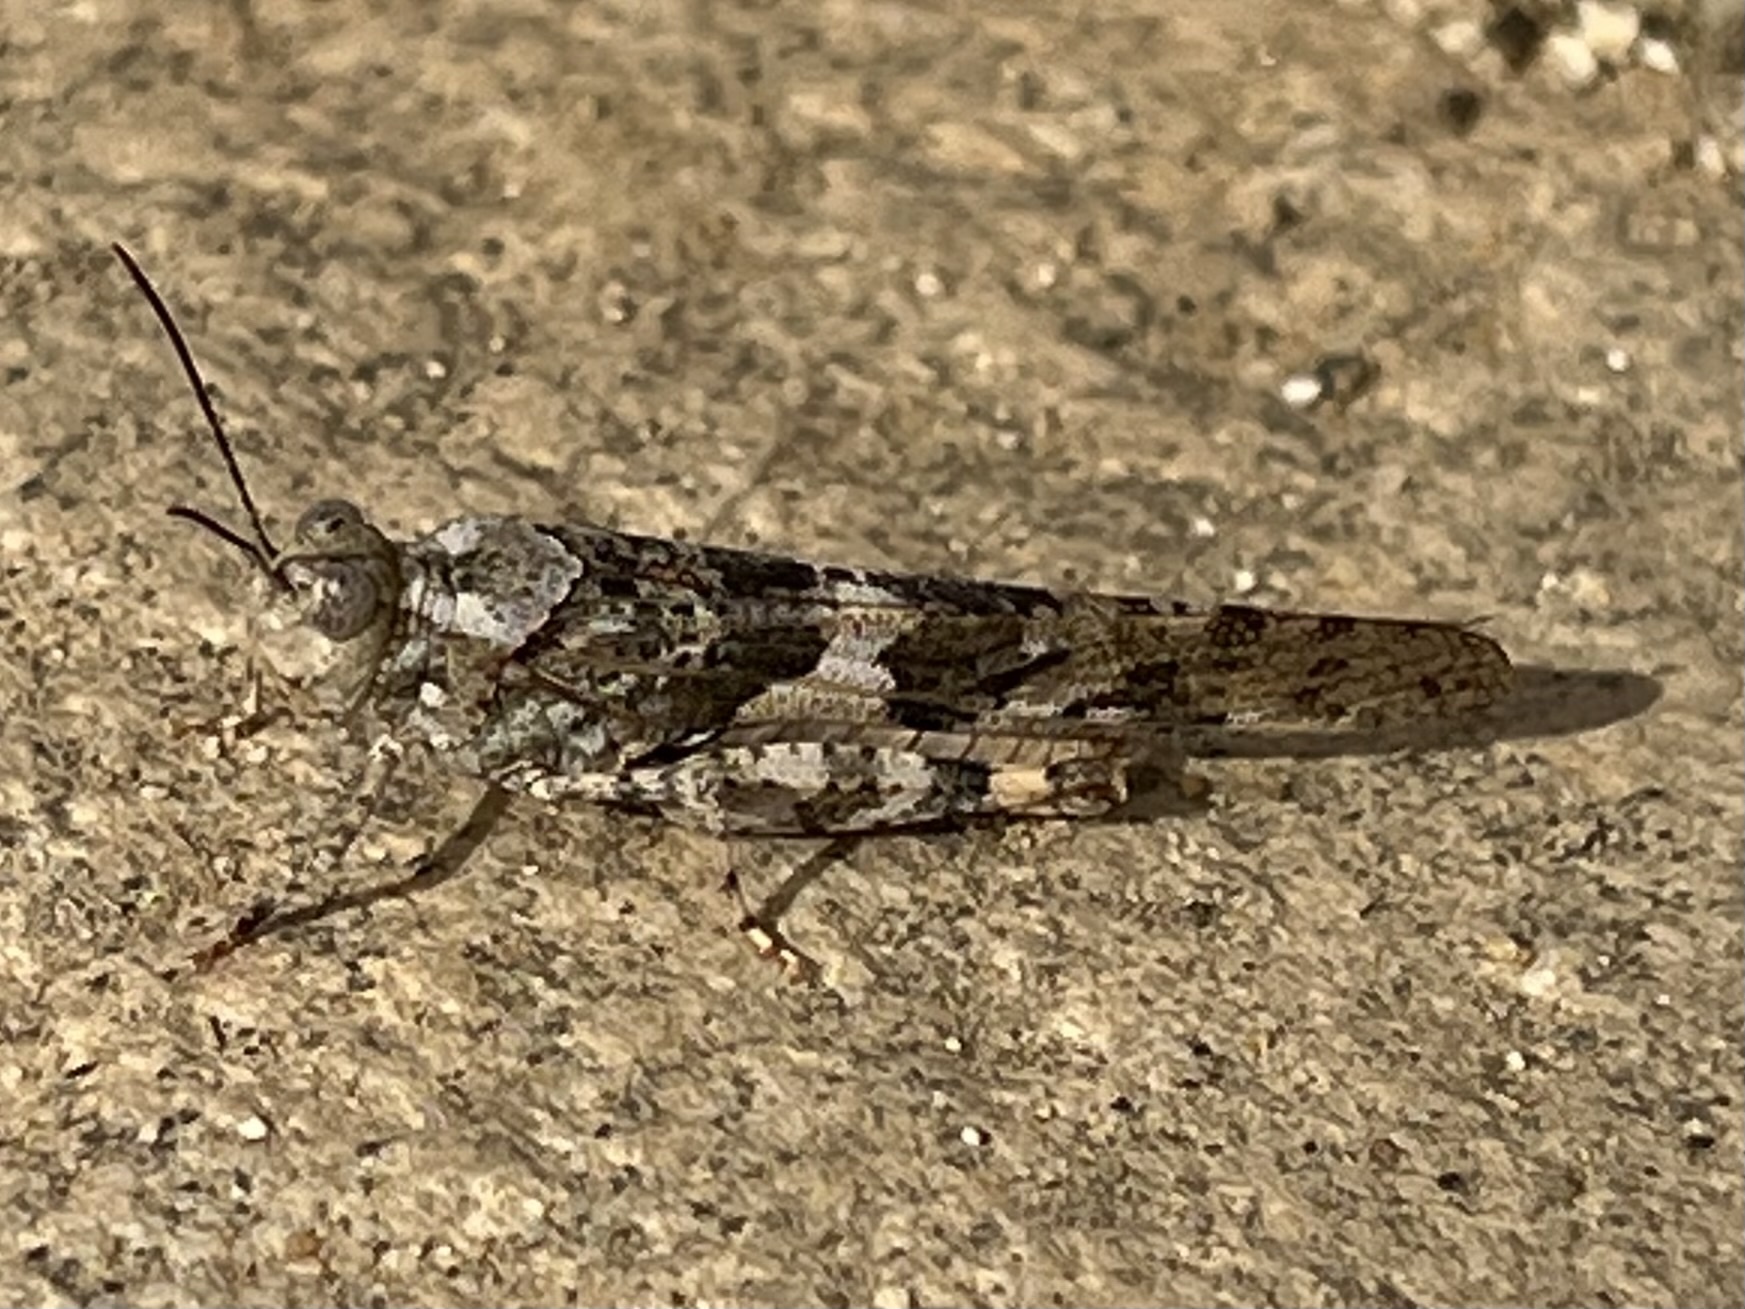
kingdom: Animalia
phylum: Arthropoda
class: Insecta
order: Orthoptera
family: Acrididae
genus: Trimerotropis
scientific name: Trimerotropis pallidipennis
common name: Pallid-winged grasshopper
